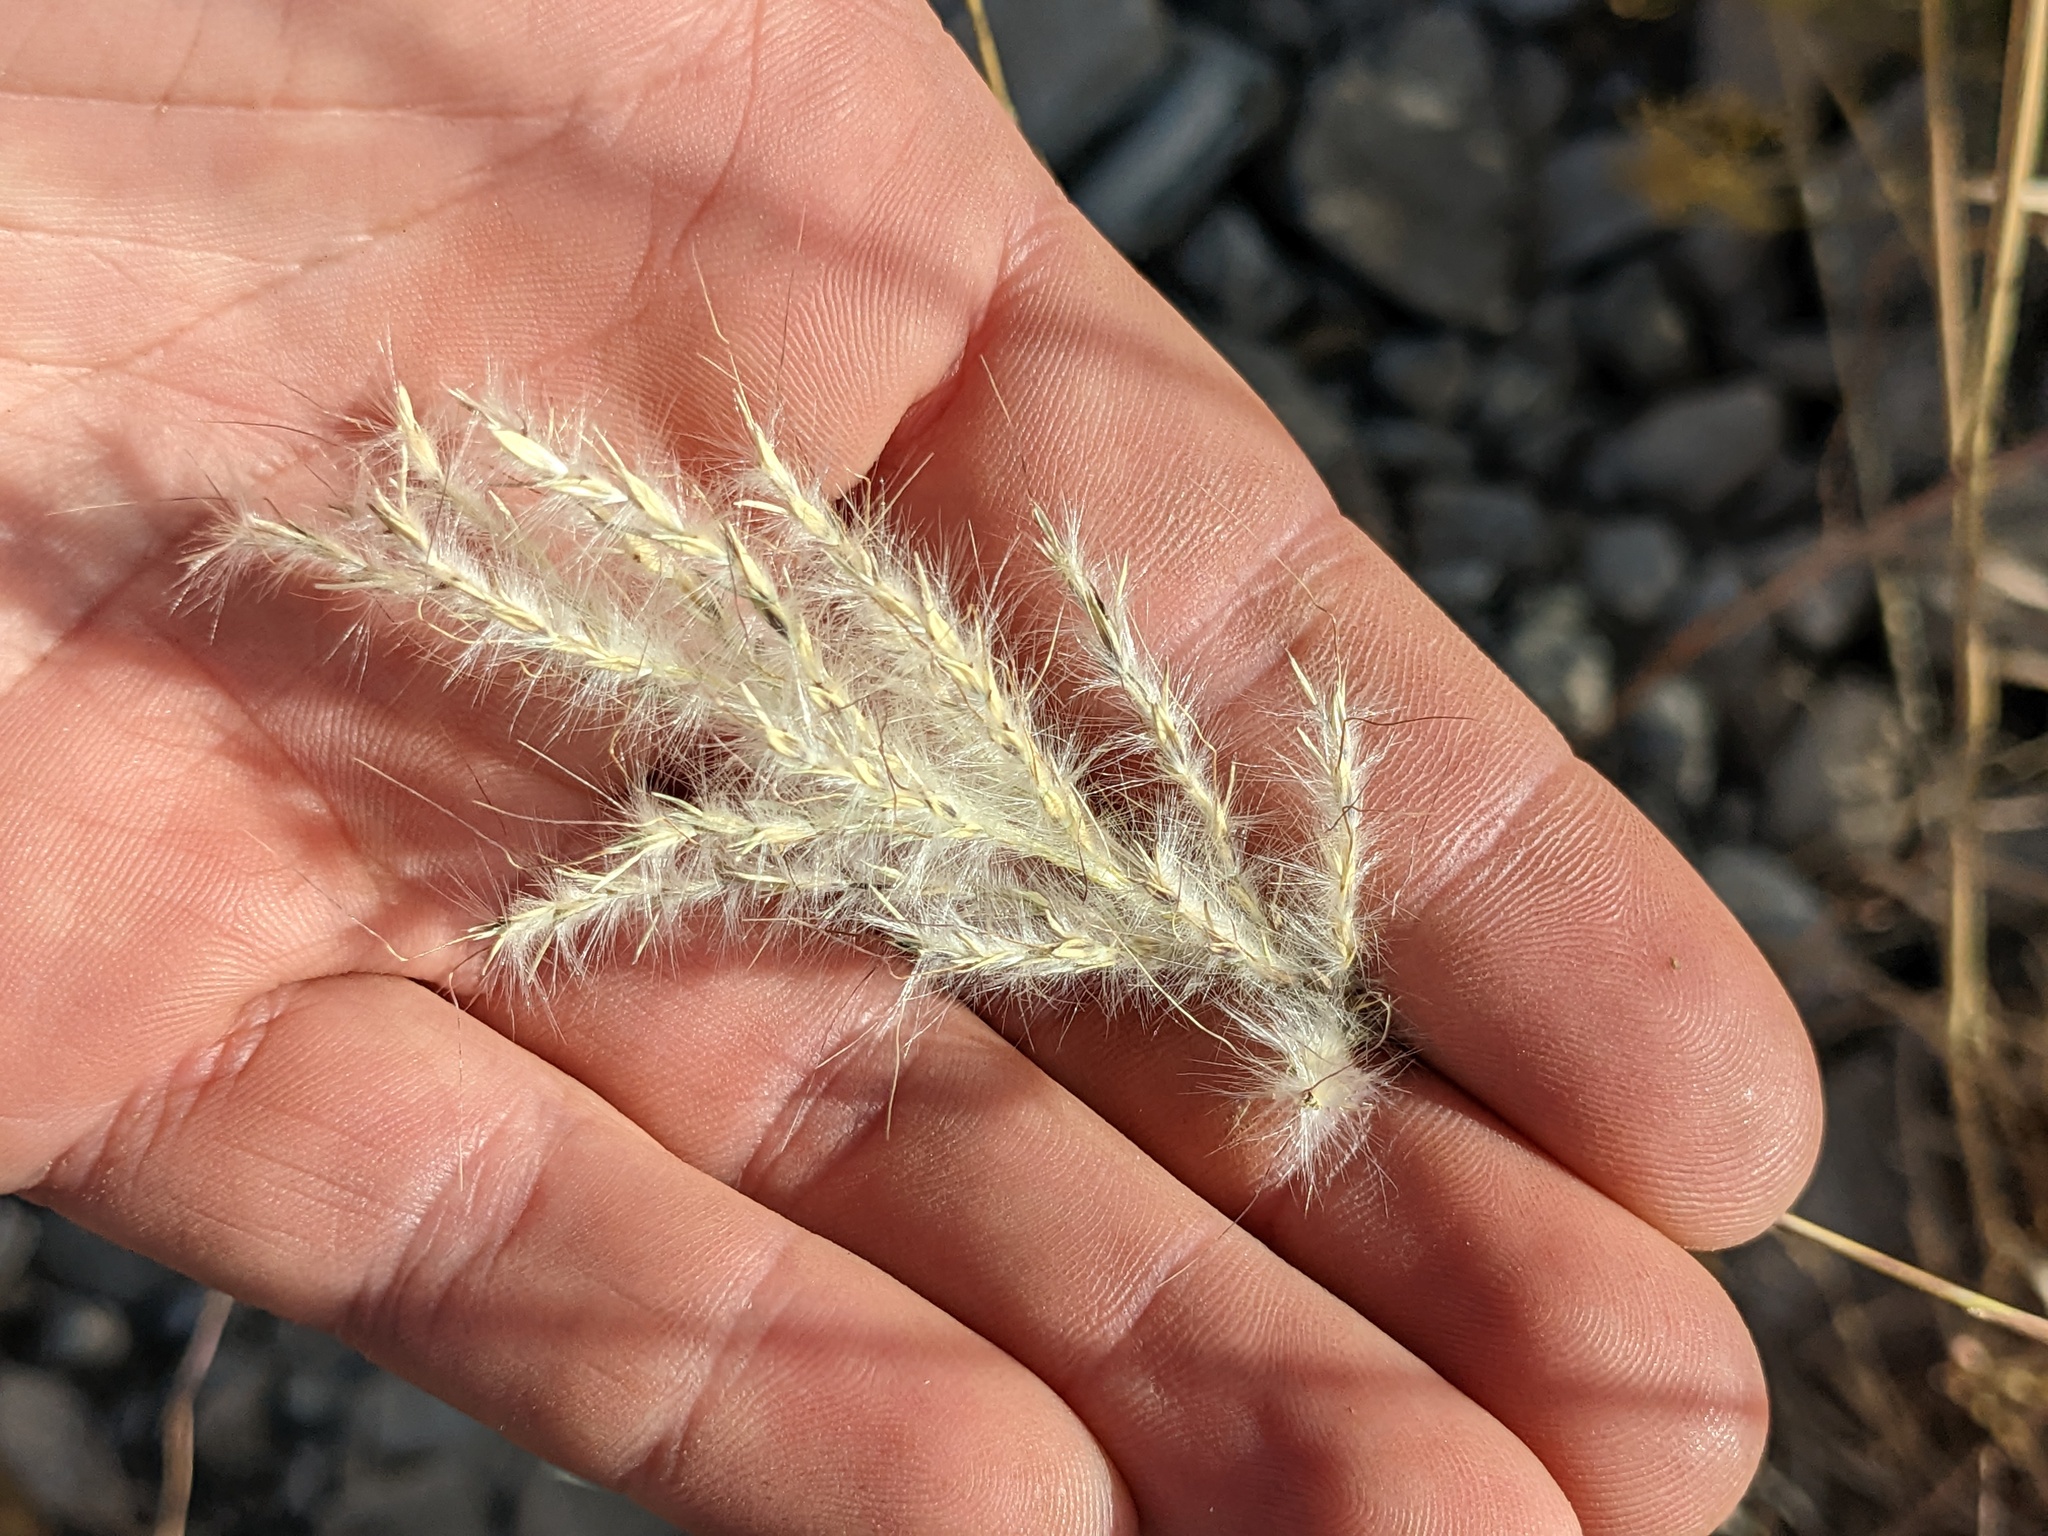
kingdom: Plantae
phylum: Tracheophyta
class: Liliopsida
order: Poales
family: Poaceae
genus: Bothriochloa
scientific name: Bothriochloa barbinodis
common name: Cane bluestem
